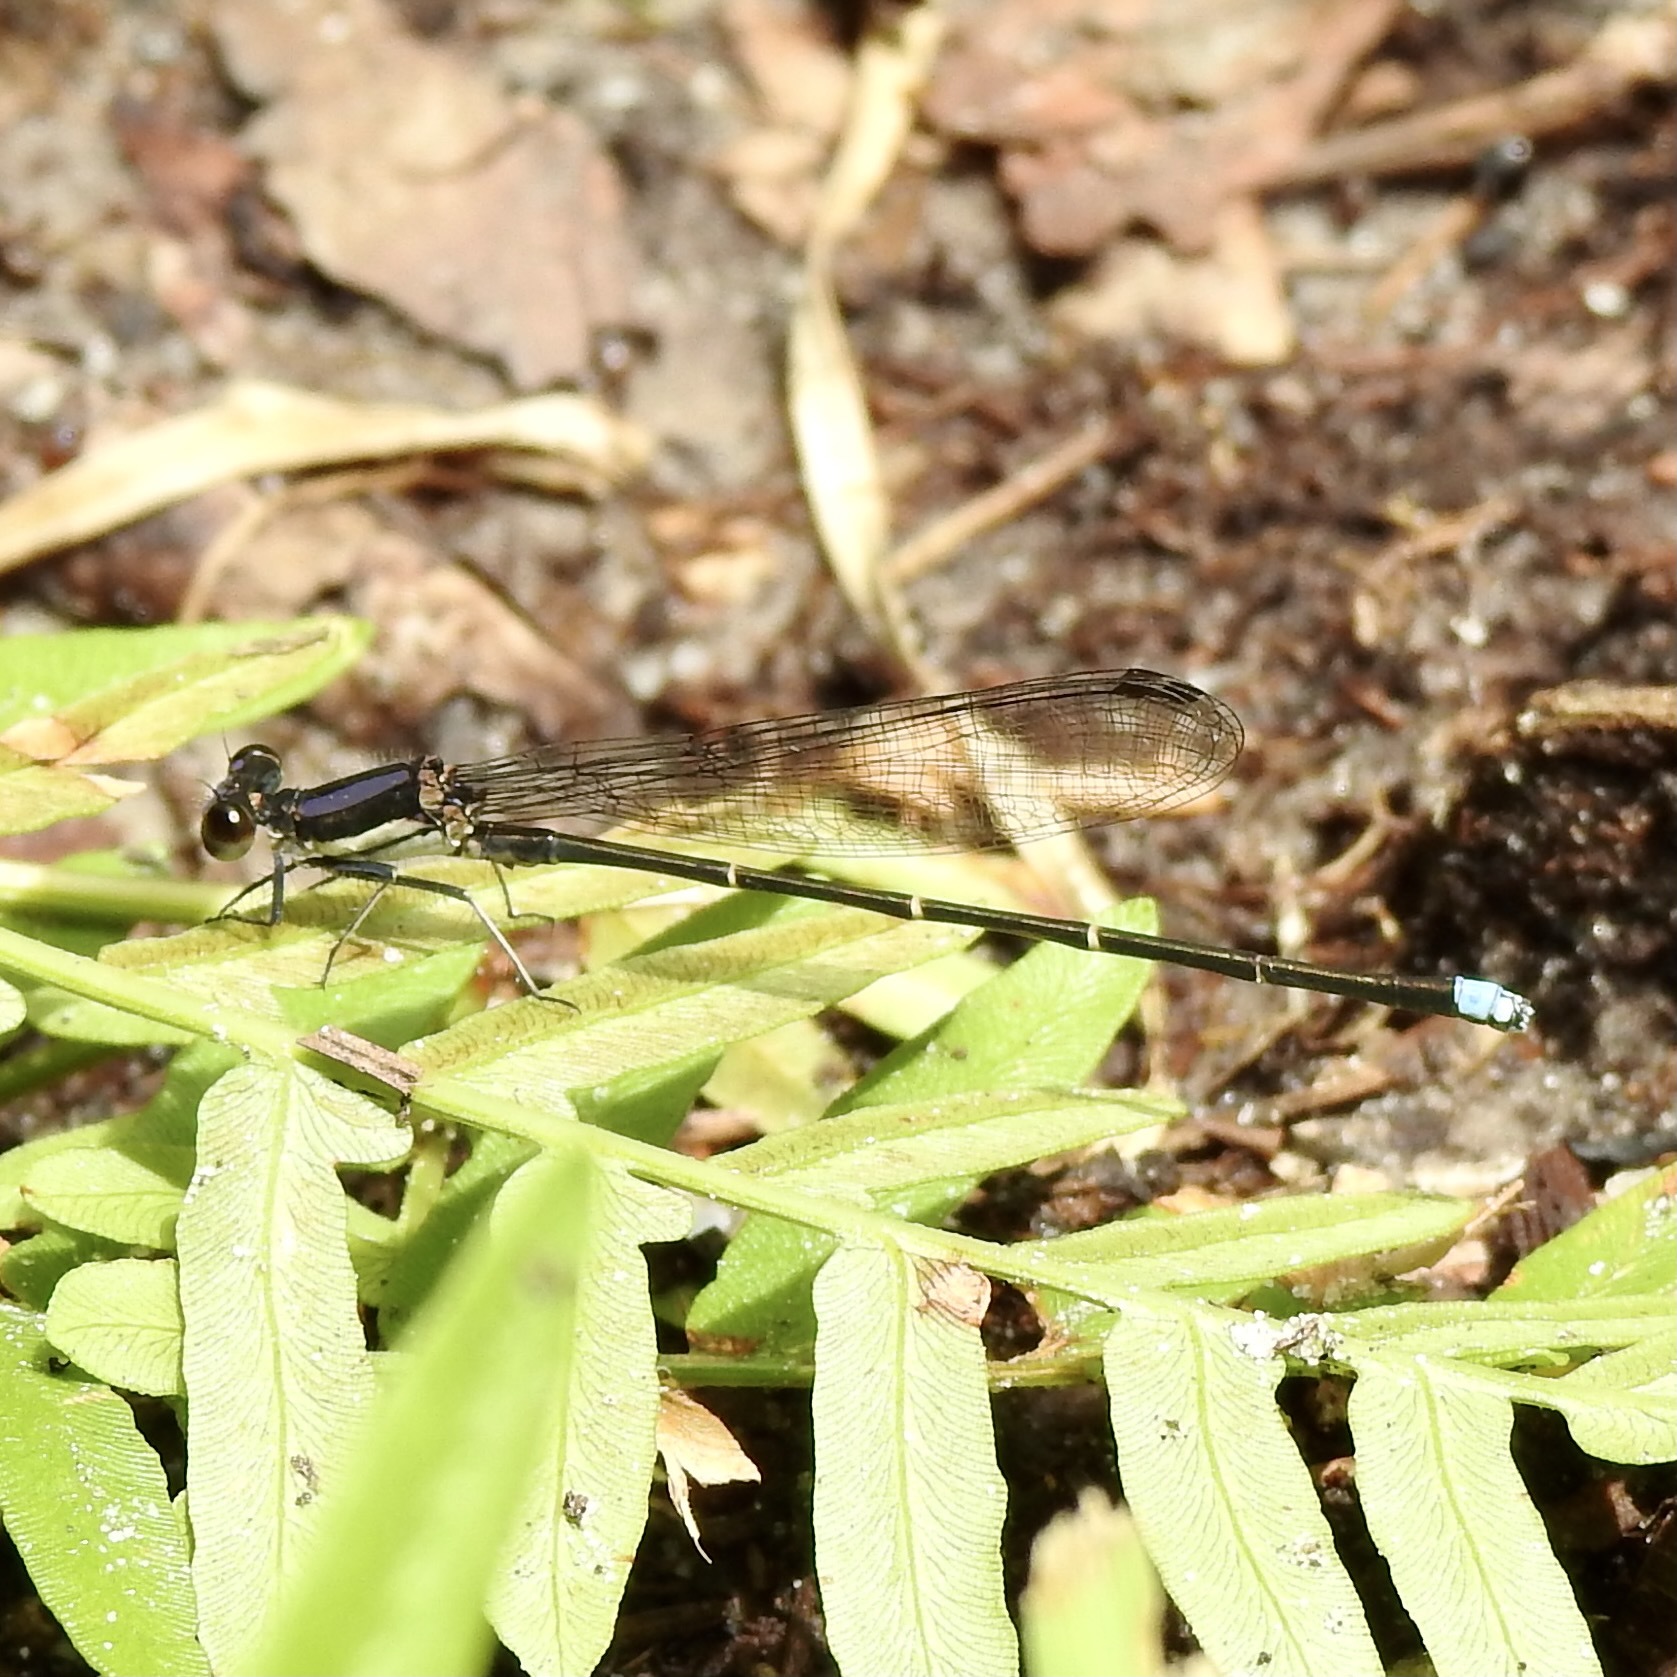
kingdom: Animalia
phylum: Arthropoda
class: Insecta
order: Odonata
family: Coenagrionidae
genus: Argia
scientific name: Argia tibialis
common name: Blue-tipped dancer
